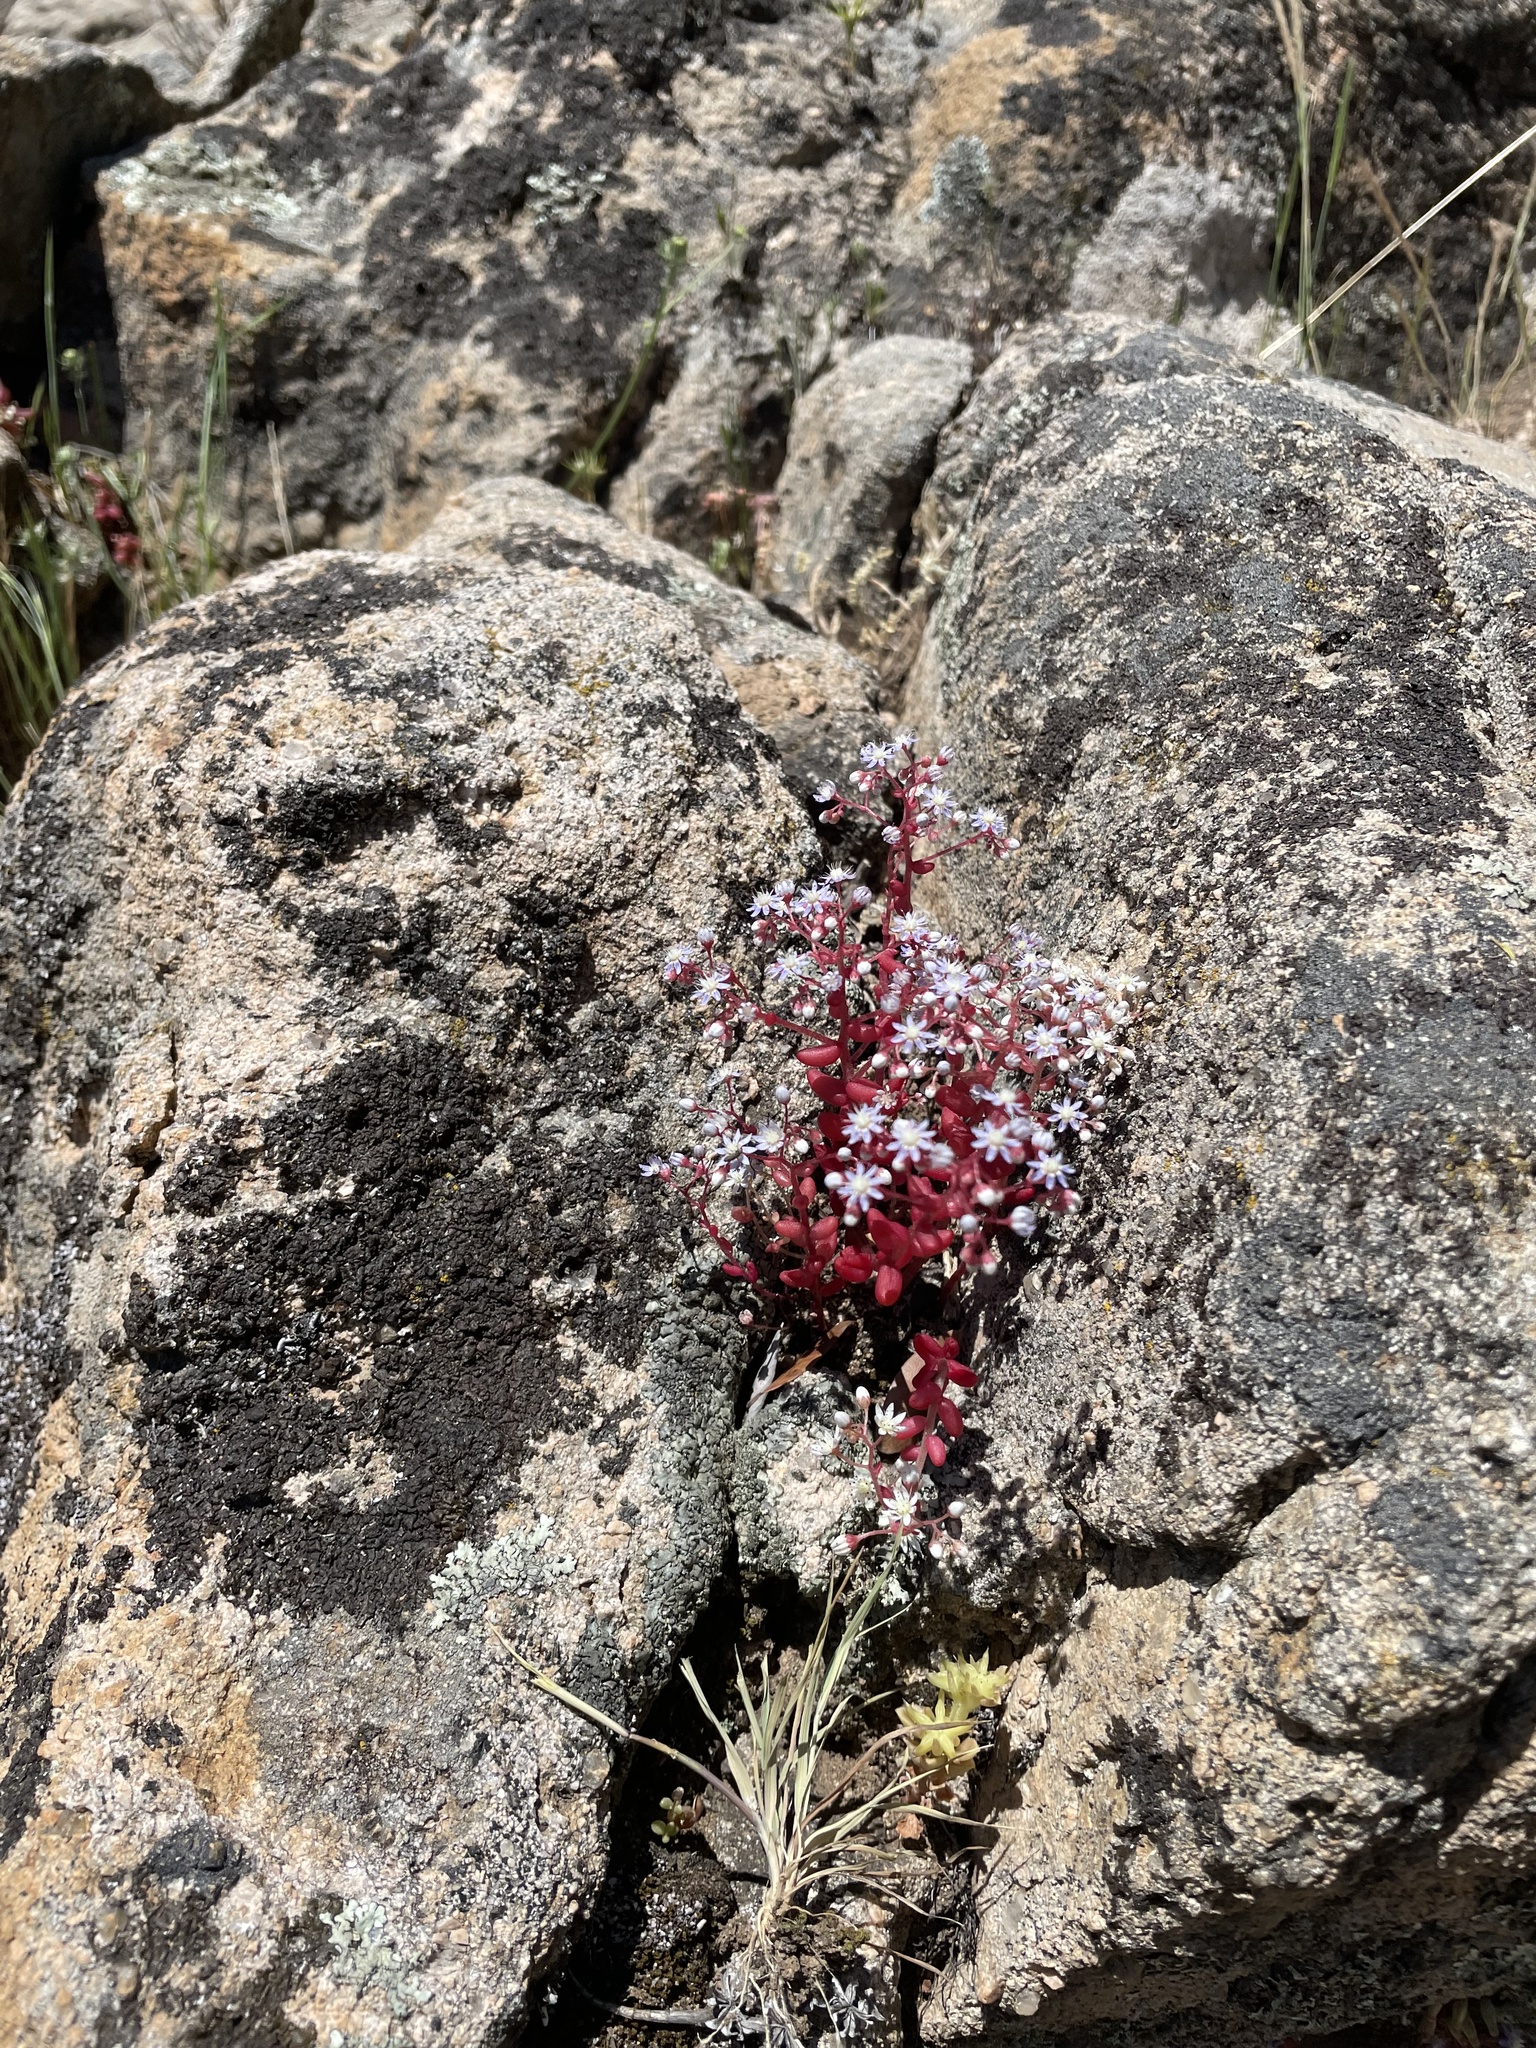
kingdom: Plantae
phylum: Tracheophyta
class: Magnoliopsida
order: Saxifragales
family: Crassulaceae
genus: Sedum
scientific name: Sedum caeruleum
